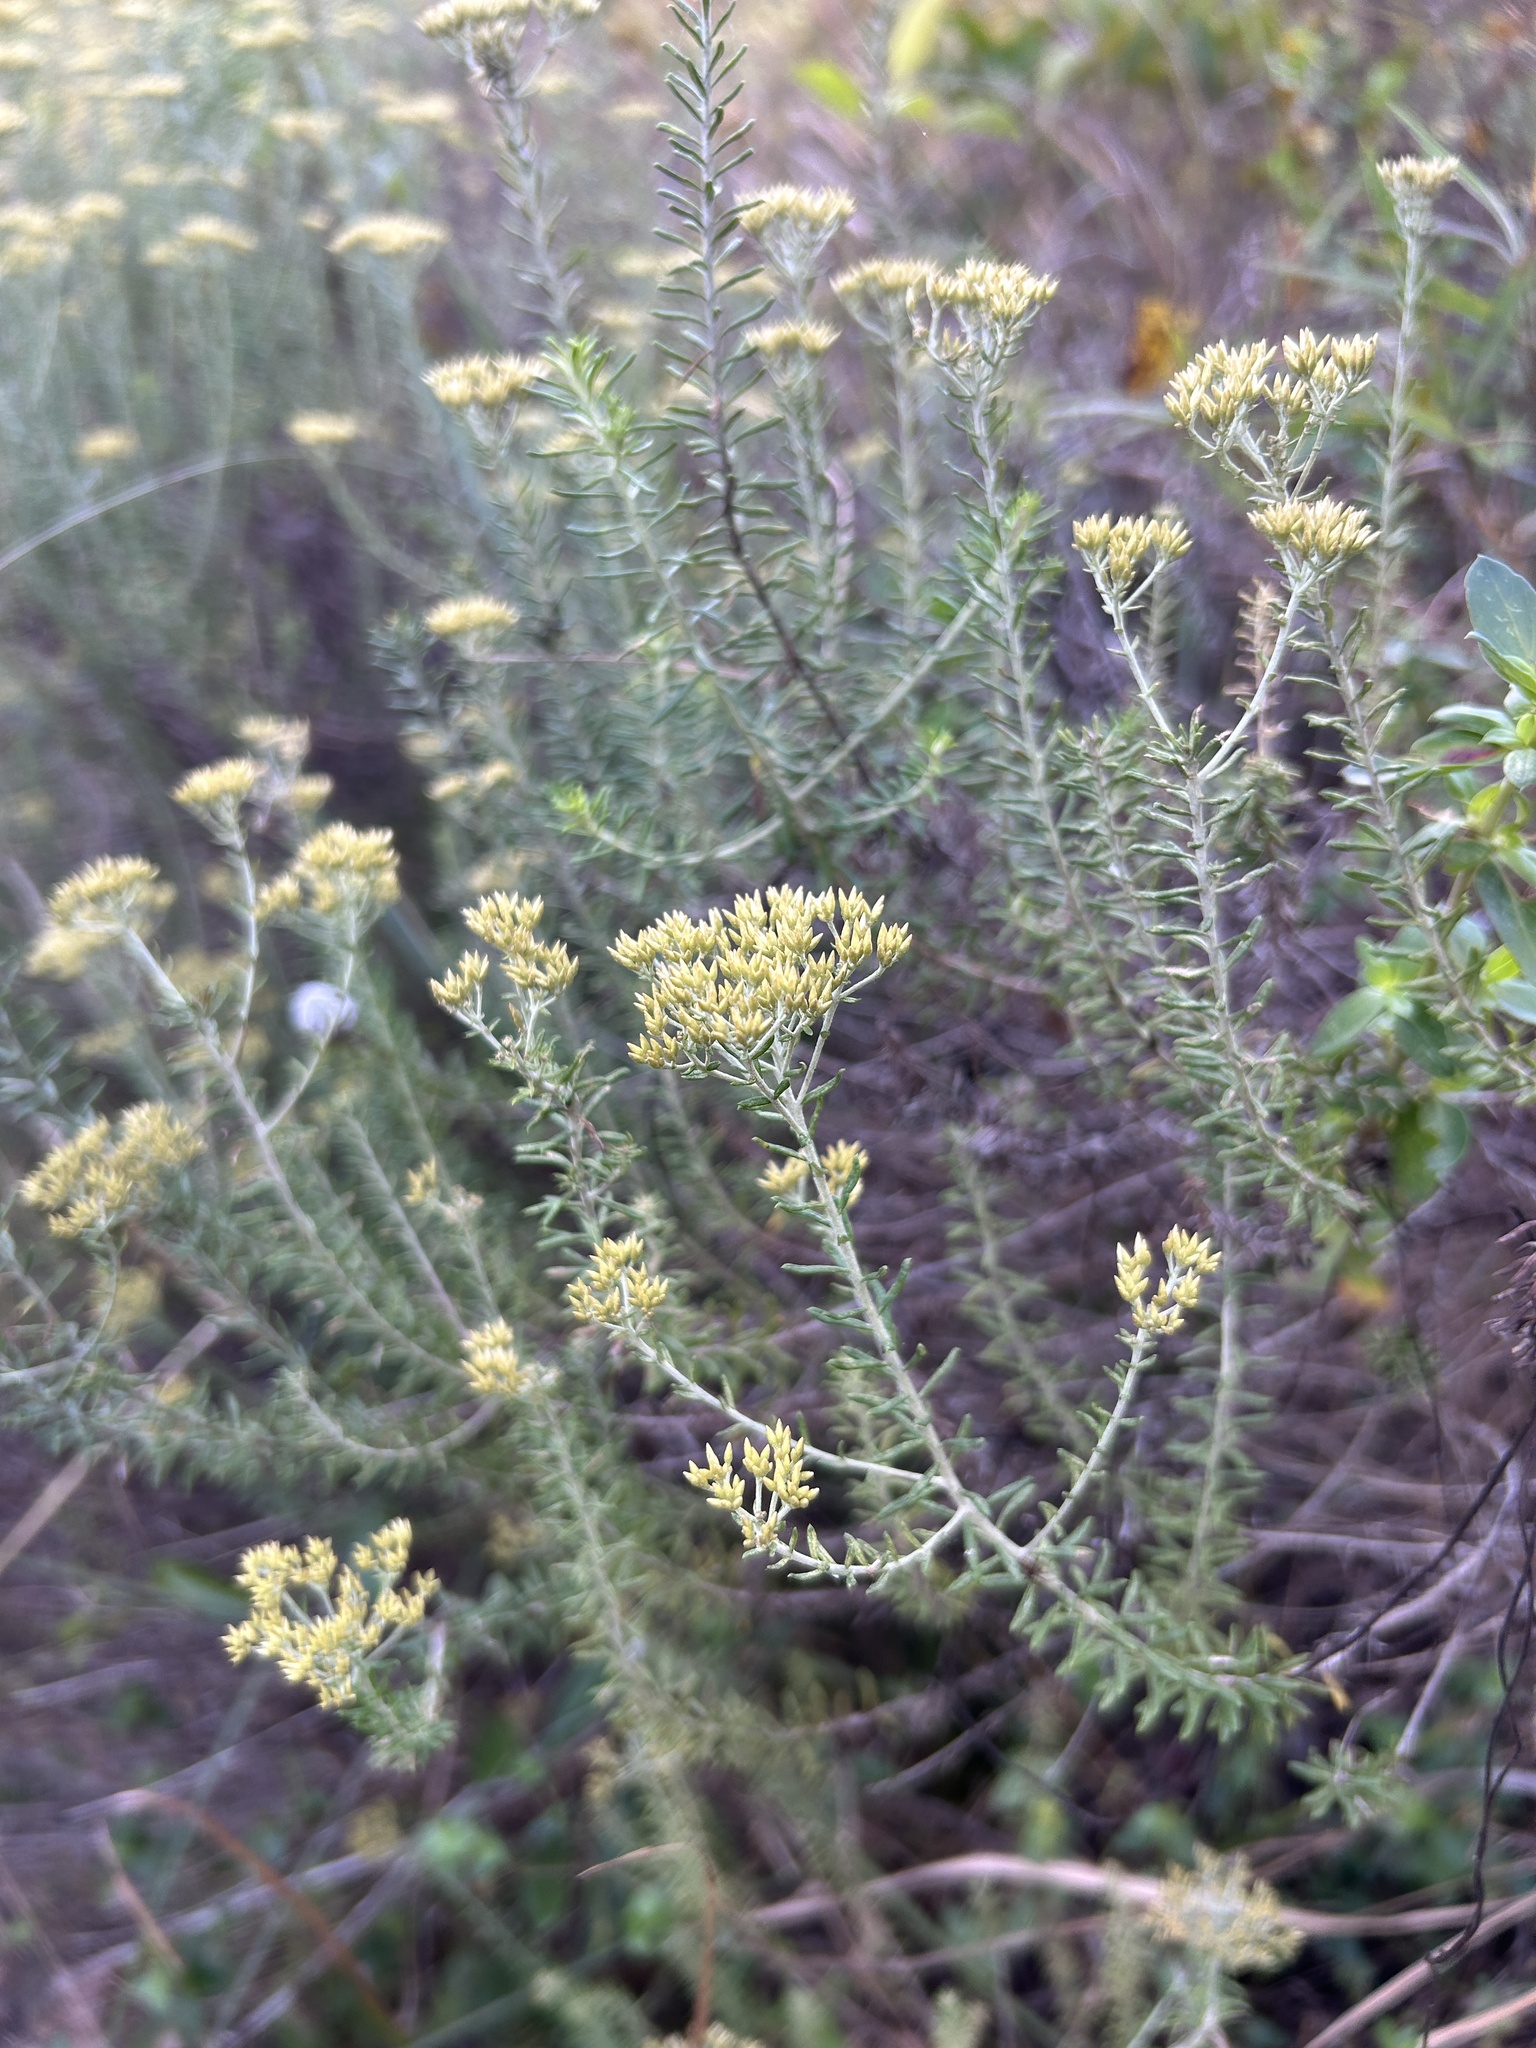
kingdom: Plantae
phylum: Tracheophyta
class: Magnoliopsida
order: Asterales
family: Asteraceae
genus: Helichrysum
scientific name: Helichrysum kraussii
